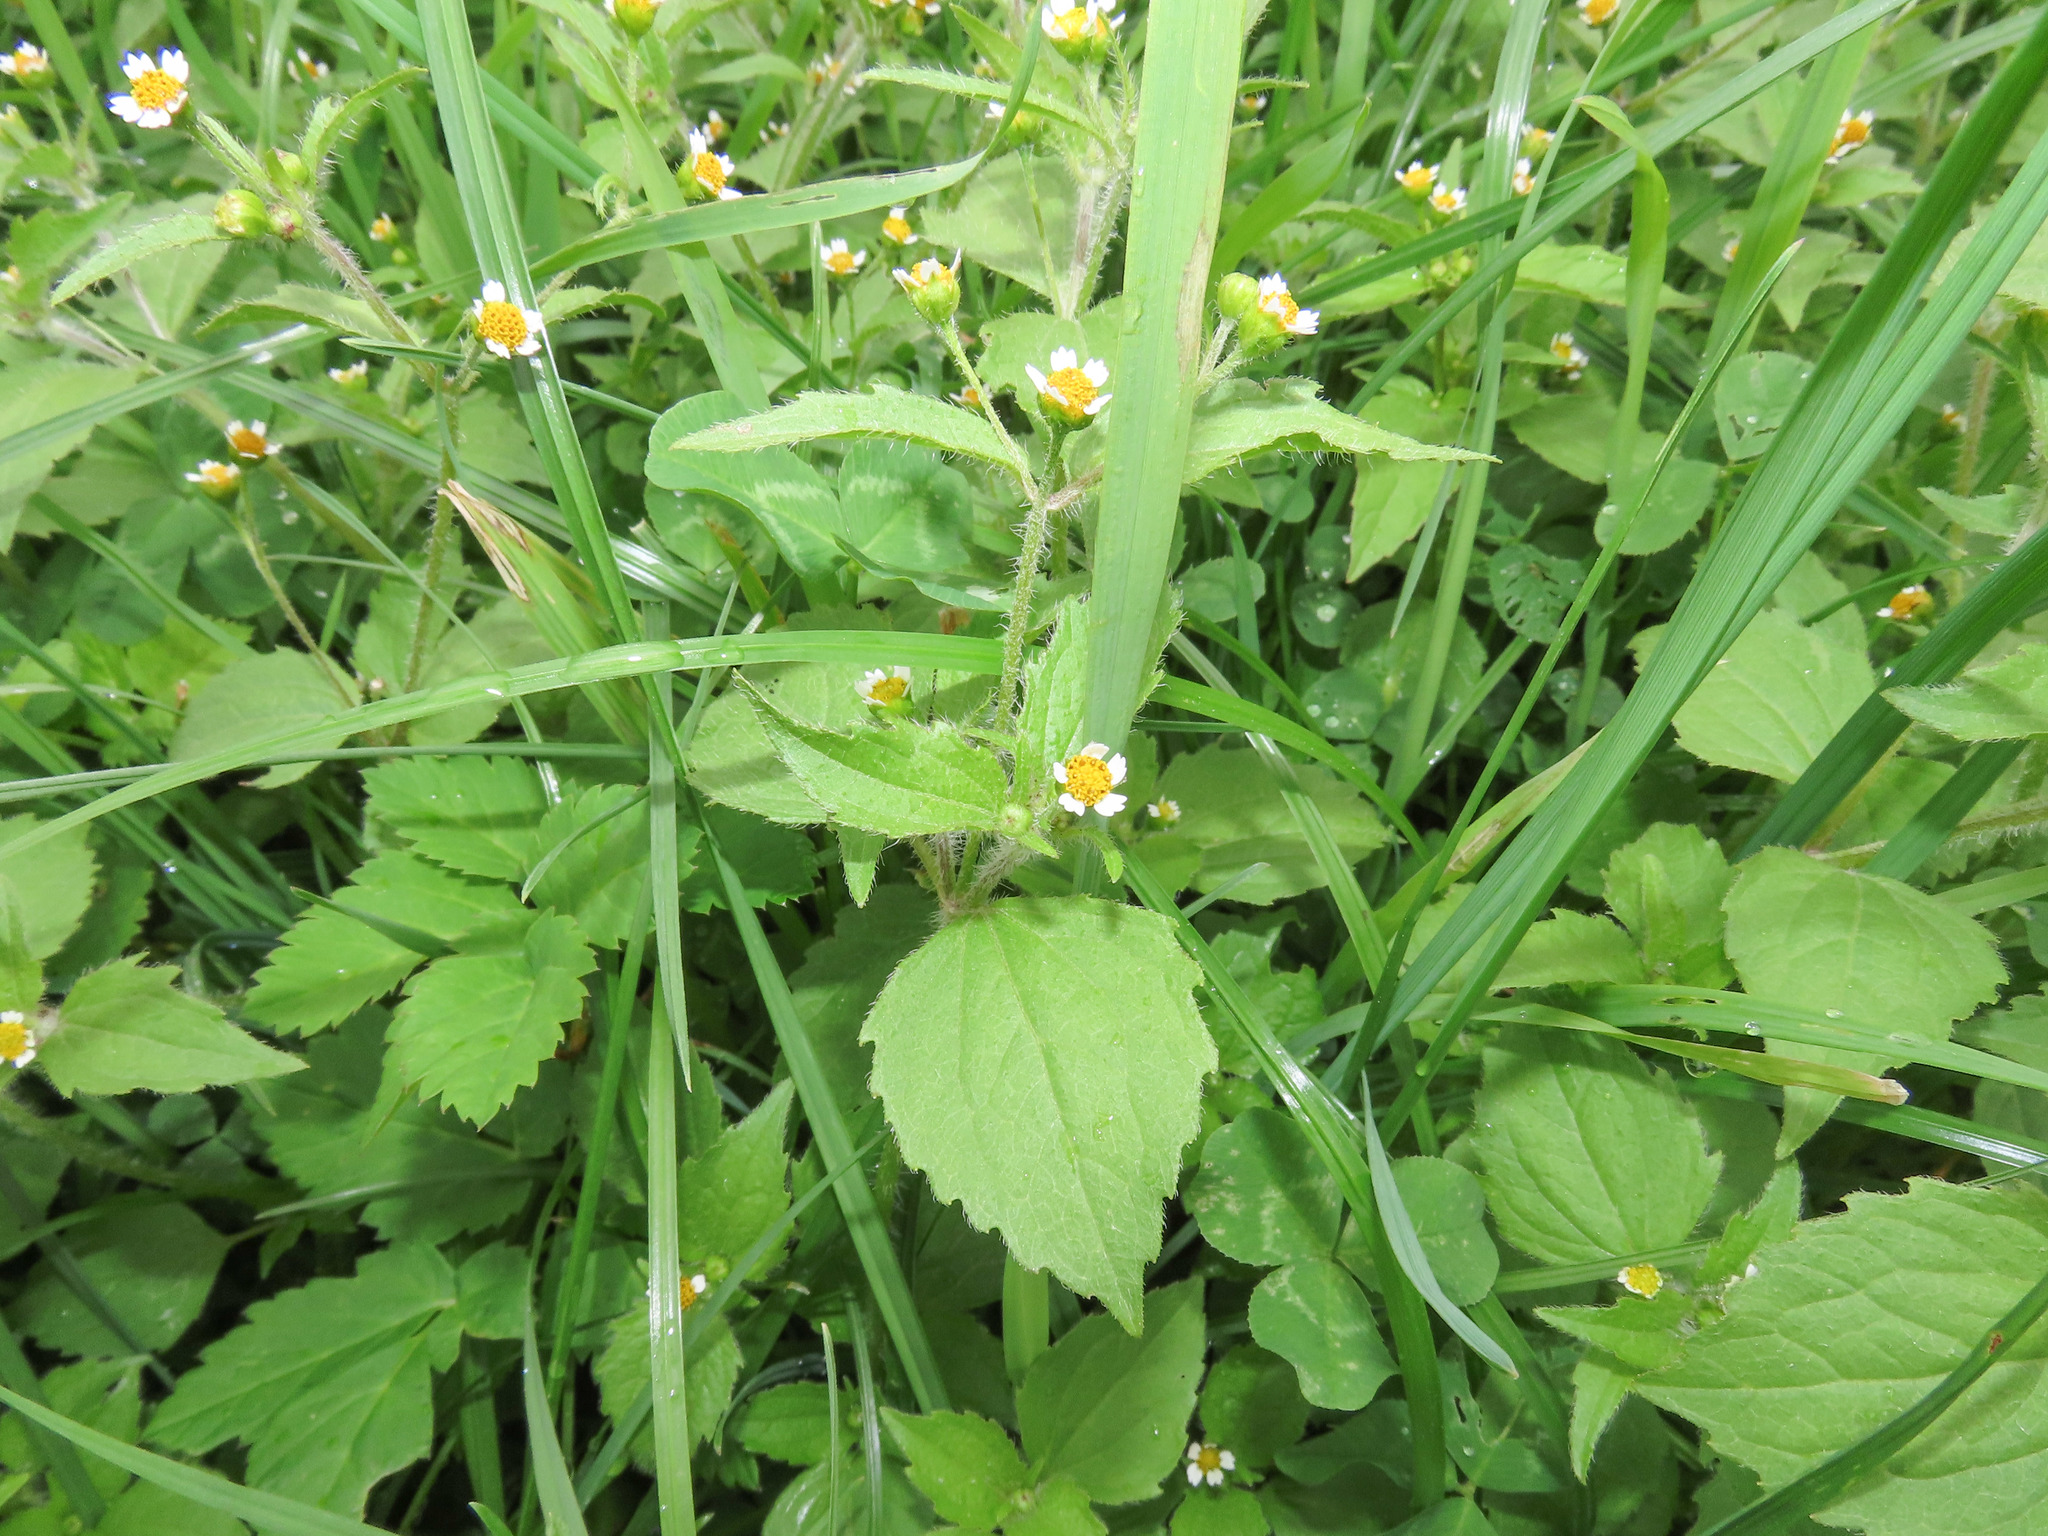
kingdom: Plantae
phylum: Tracheophyta
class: Magnoliopsida
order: Asterales
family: Asteraceae
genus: Galinsoga
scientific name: Galinsoga quadriradiata
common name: Shaggy soldier
